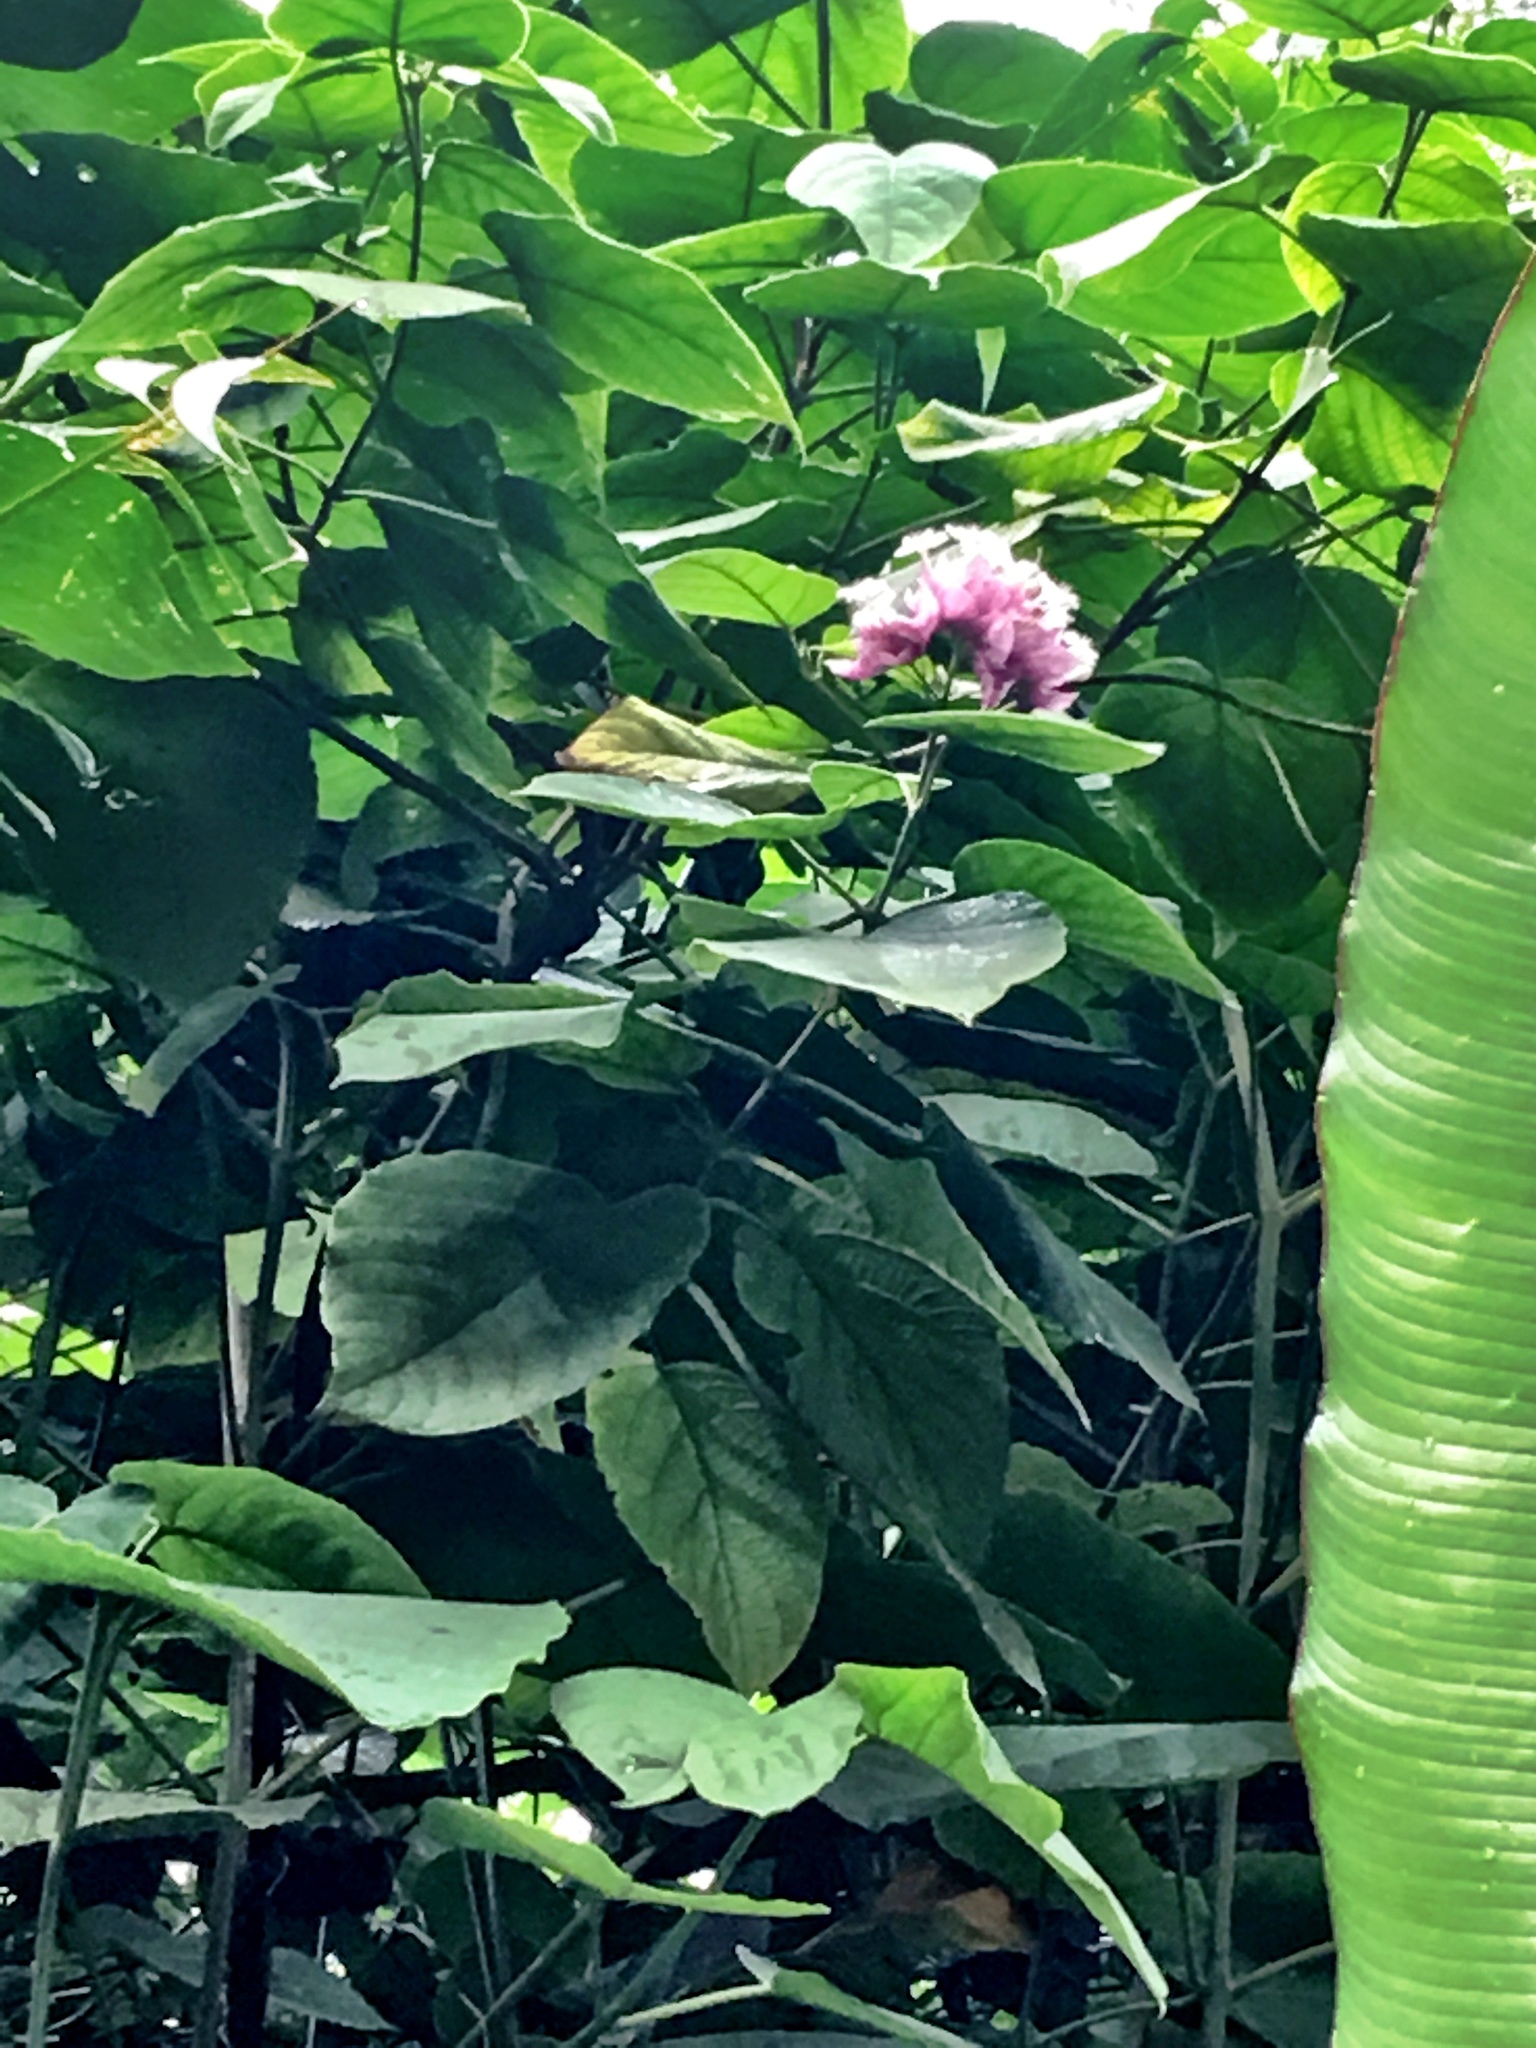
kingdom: Plantae
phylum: Tracheophyta
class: Magnoliopsida
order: Lamiales
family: Lamiaceae
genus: Clerodendrum
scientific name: Clerodendrum macrostegium
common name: Velvetleaf glorybower
